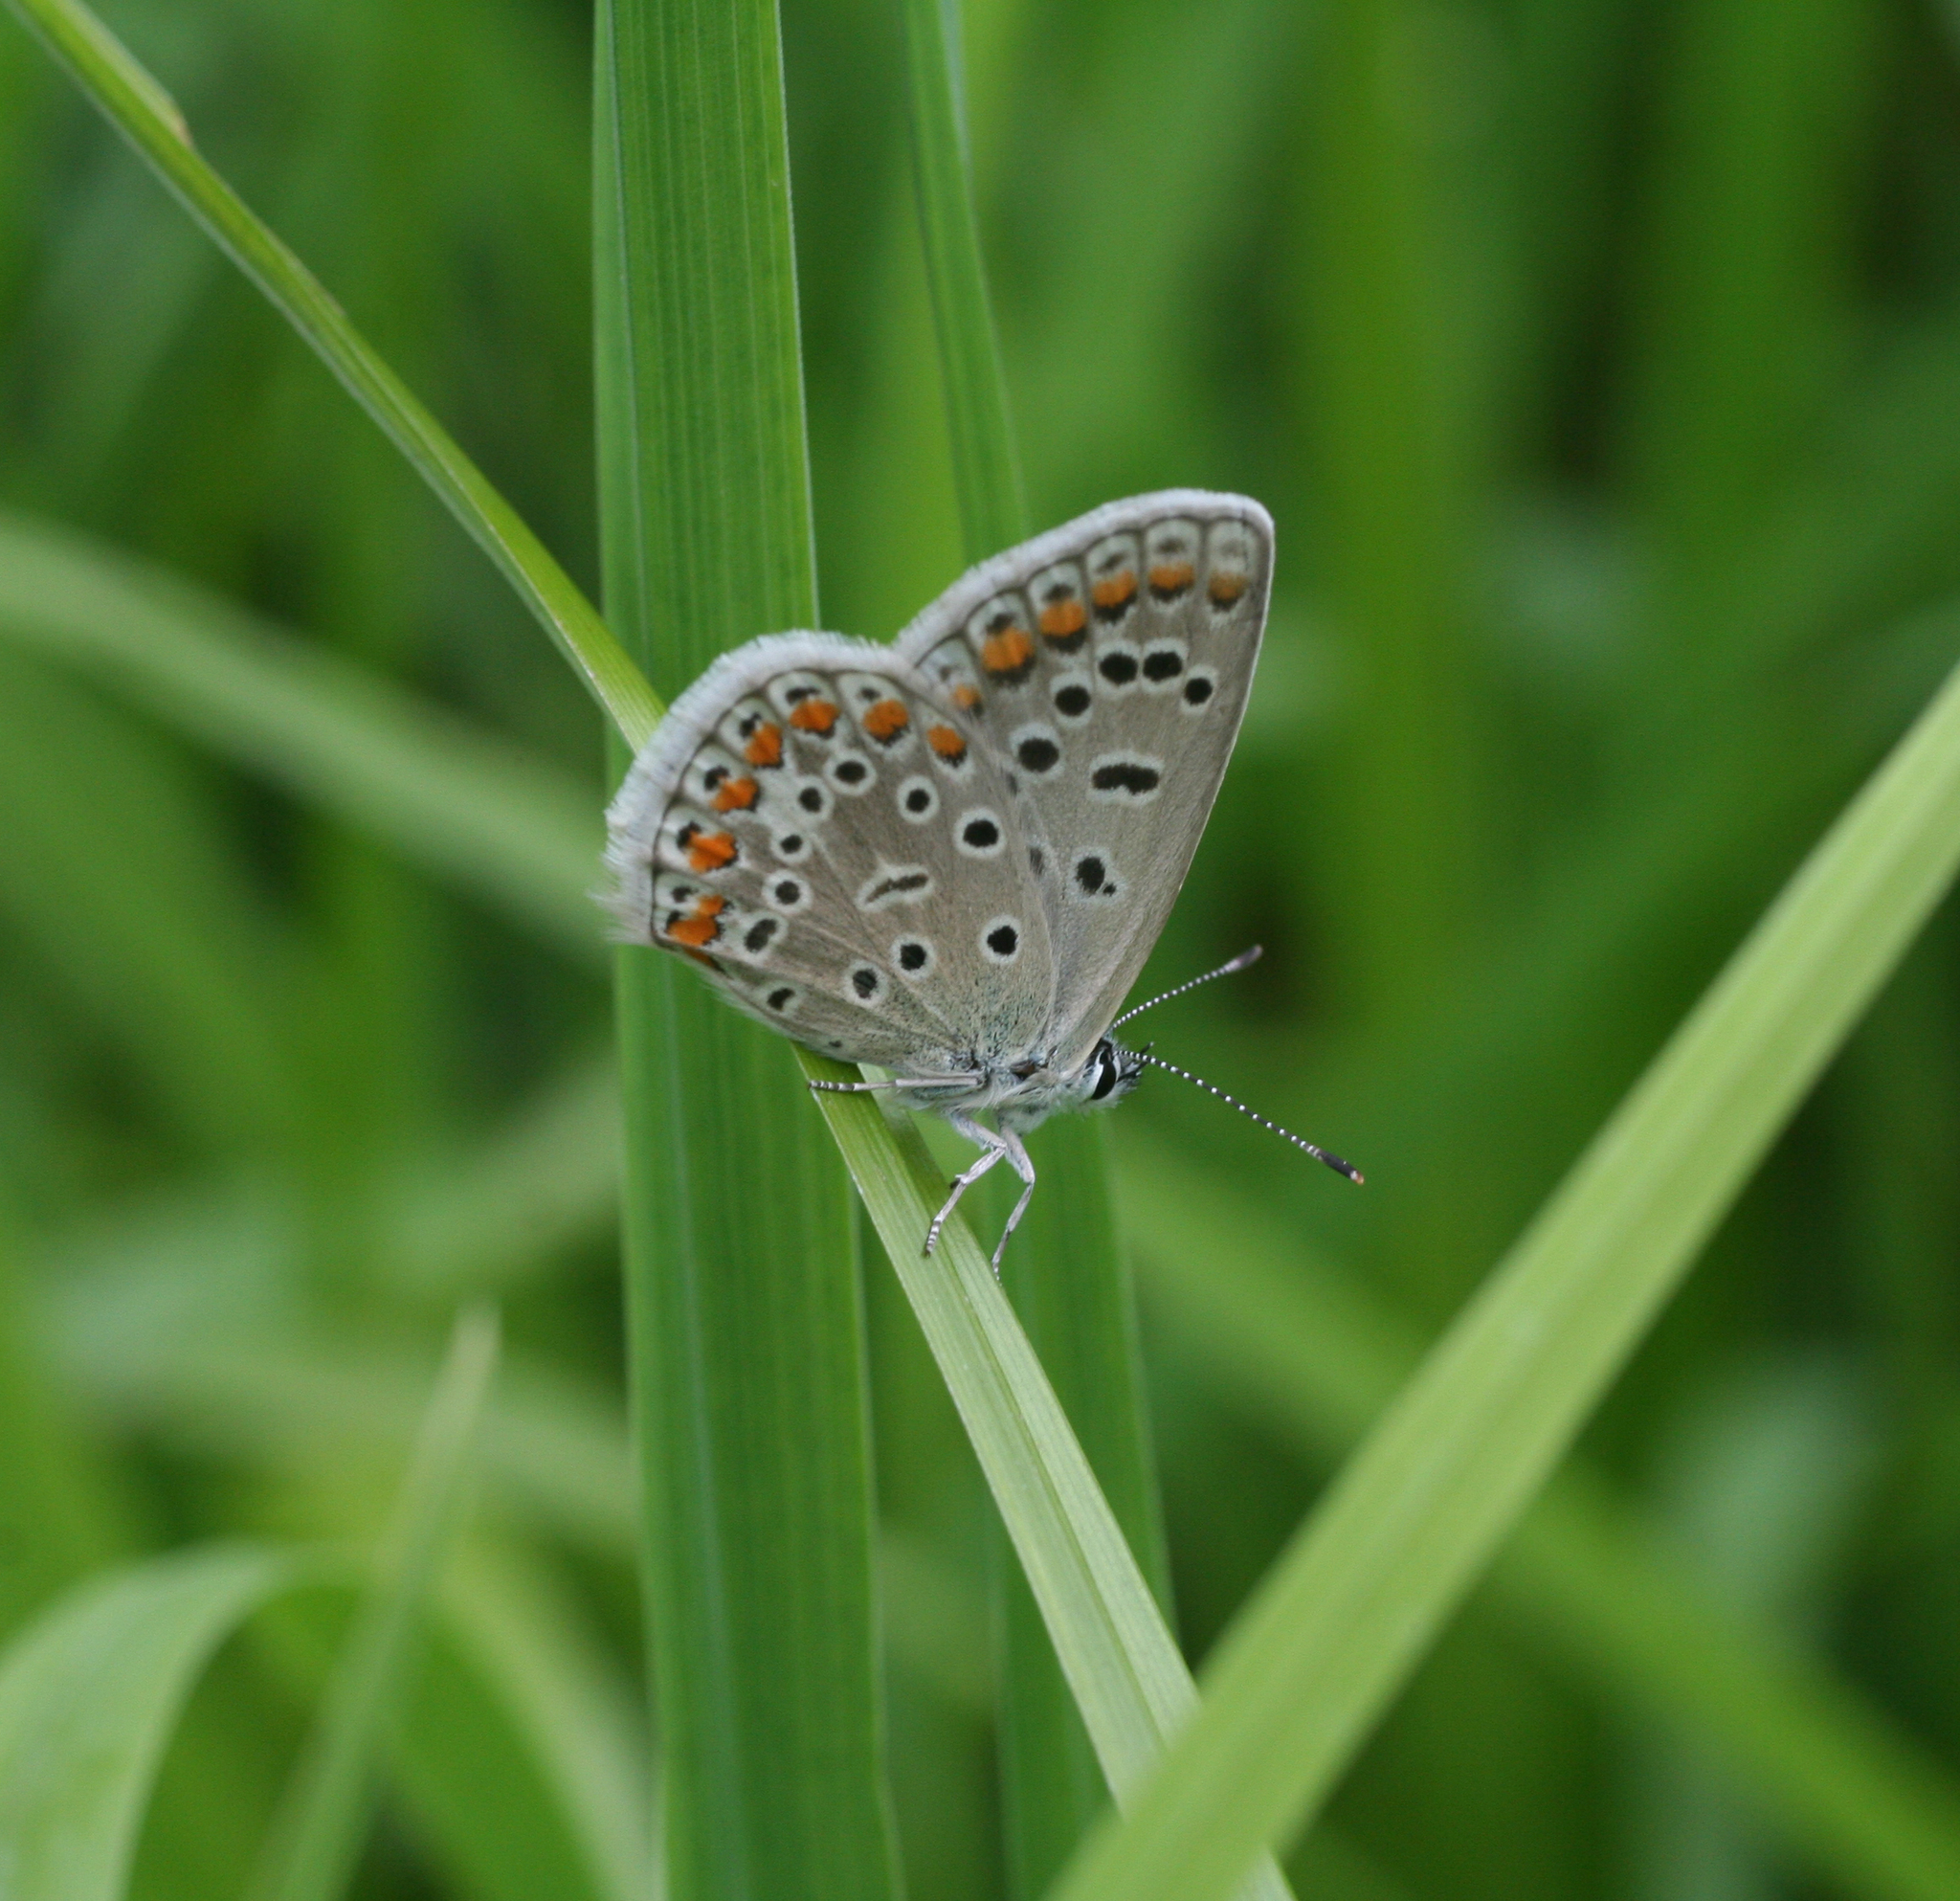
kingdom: Animalia
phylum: Arthropoda
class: Insecta
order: Lepidoptera
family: Lycaenidae
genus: Polyommatus
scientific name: Polyommatus icarus
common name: Common blue
